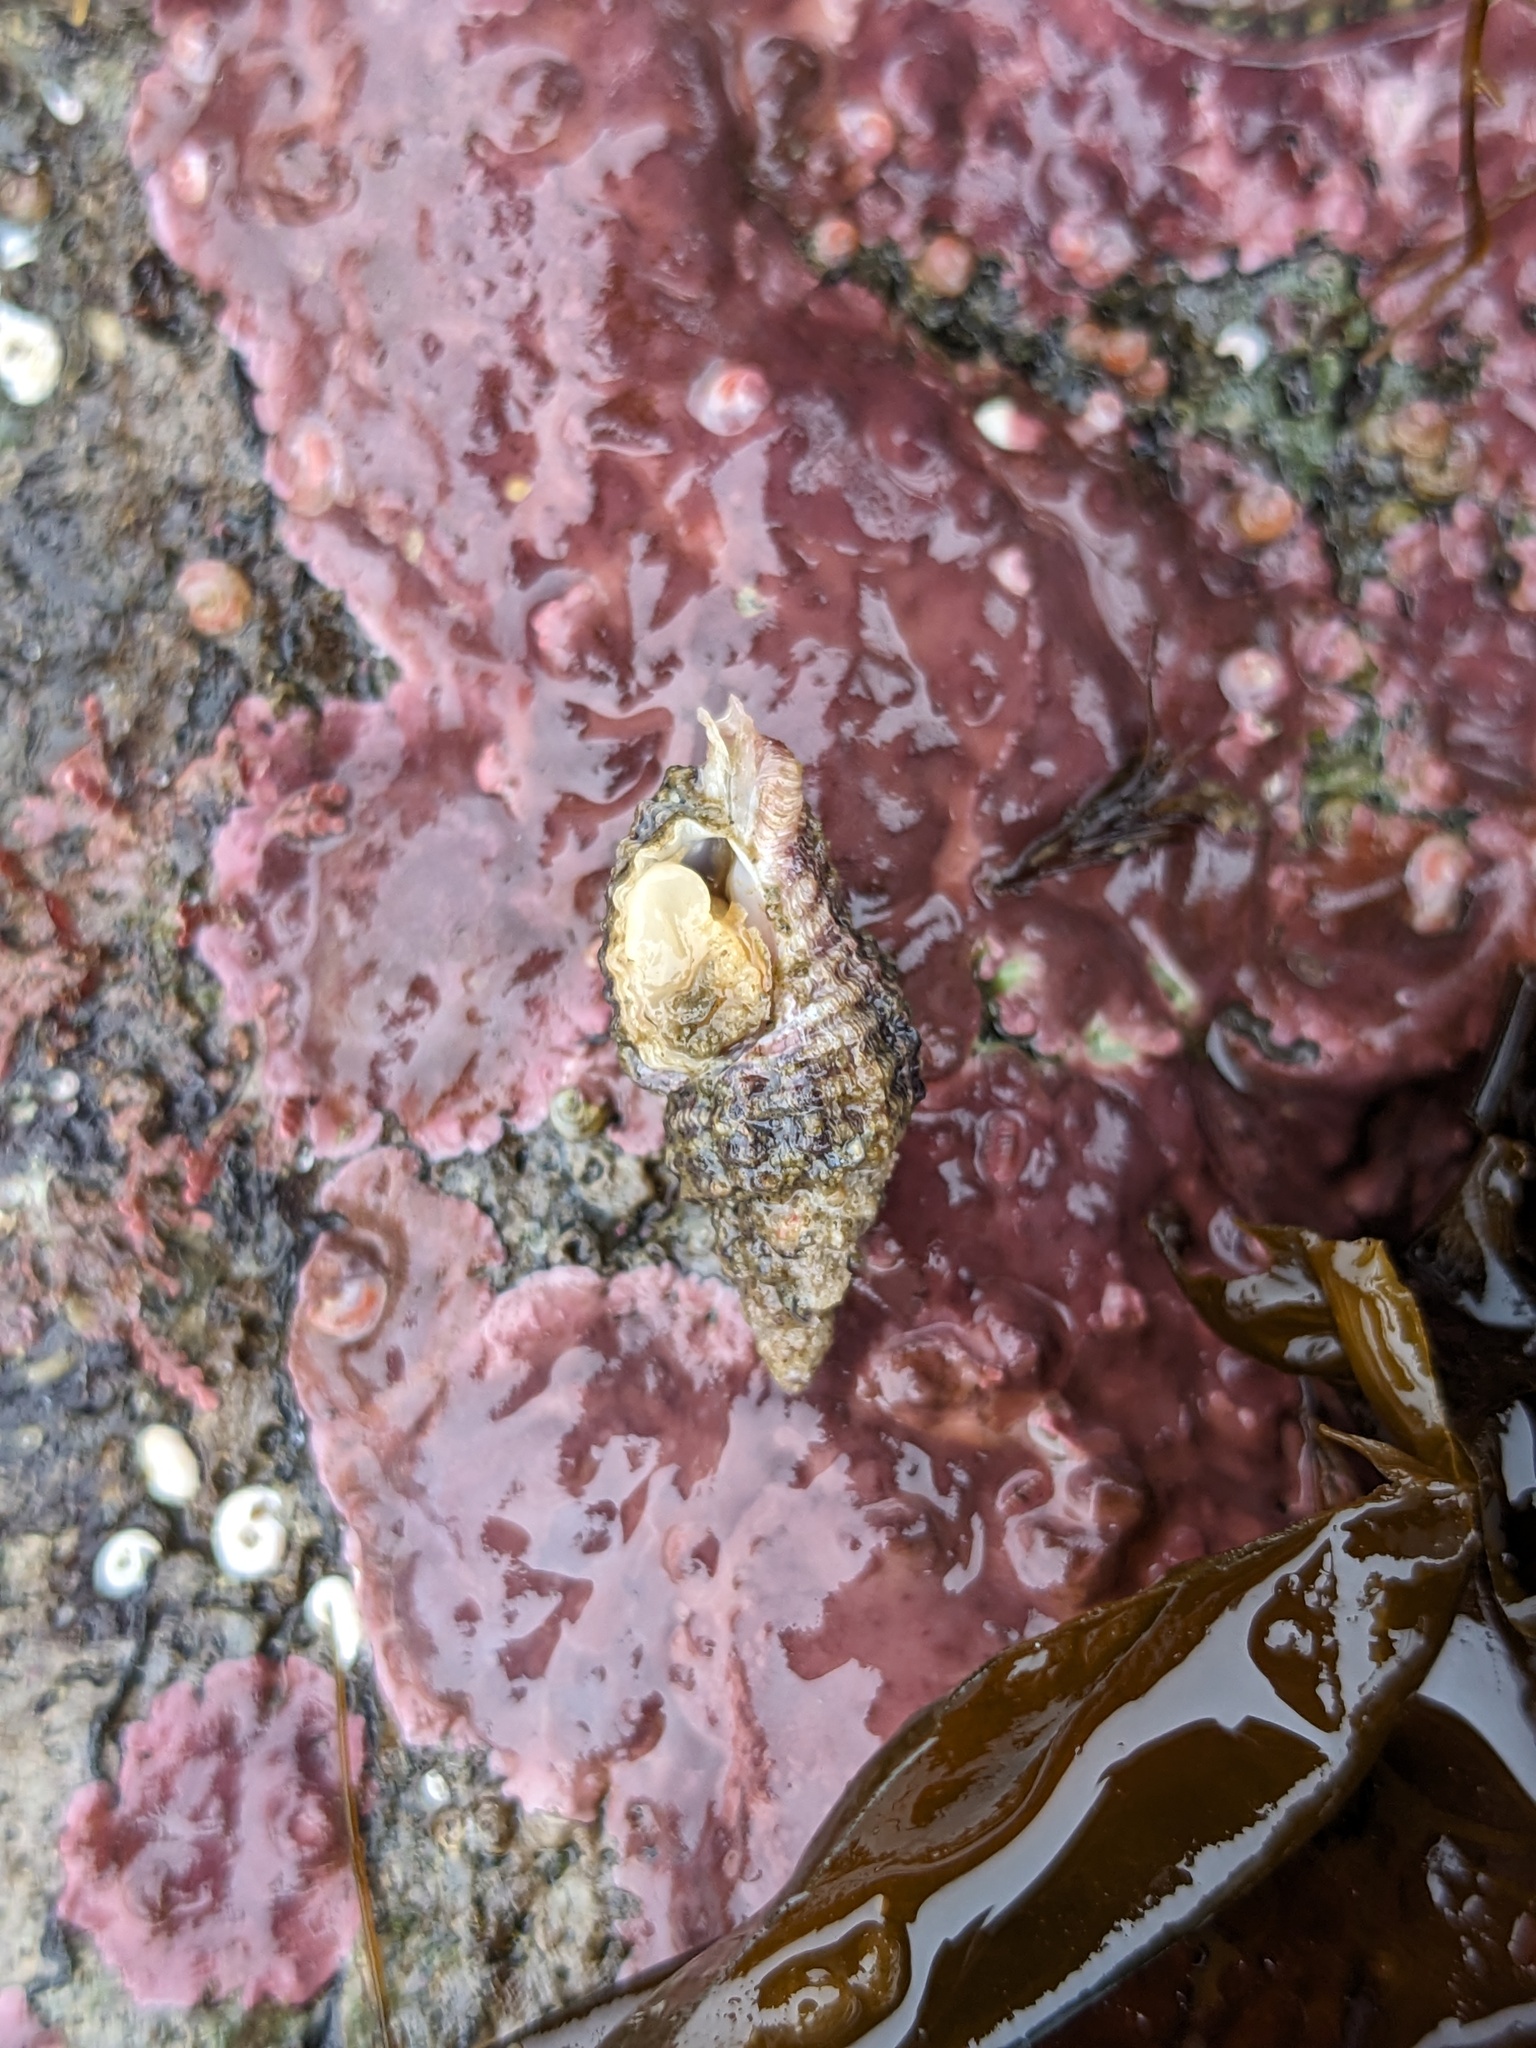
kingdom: Animalia
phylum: Mollusca
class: Gastropoda
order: Neogastropoda
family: Muricidae
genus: Paciocinebrina
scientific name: Paciocinebrina interfossa
